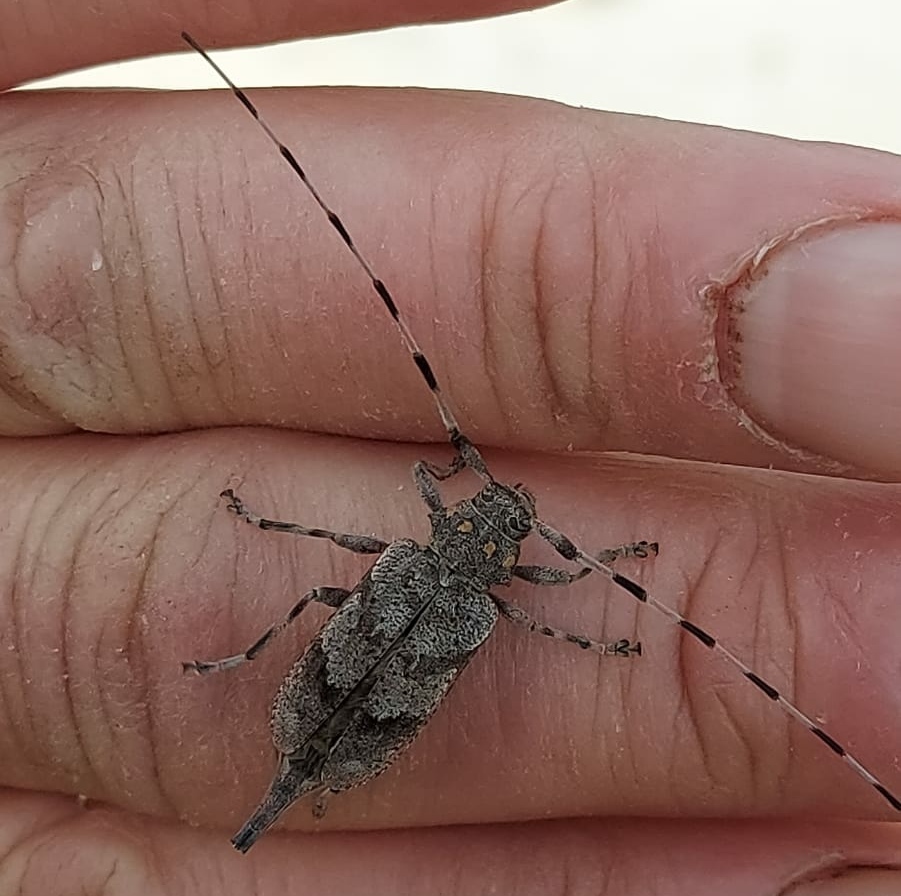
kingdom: Animalia
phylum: Arthropoda
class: Insecta
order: Coleoptera
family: Cerambycidae
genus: Acanthocinus
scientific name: Acanthocinus aedilis
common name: Timberman beetle
